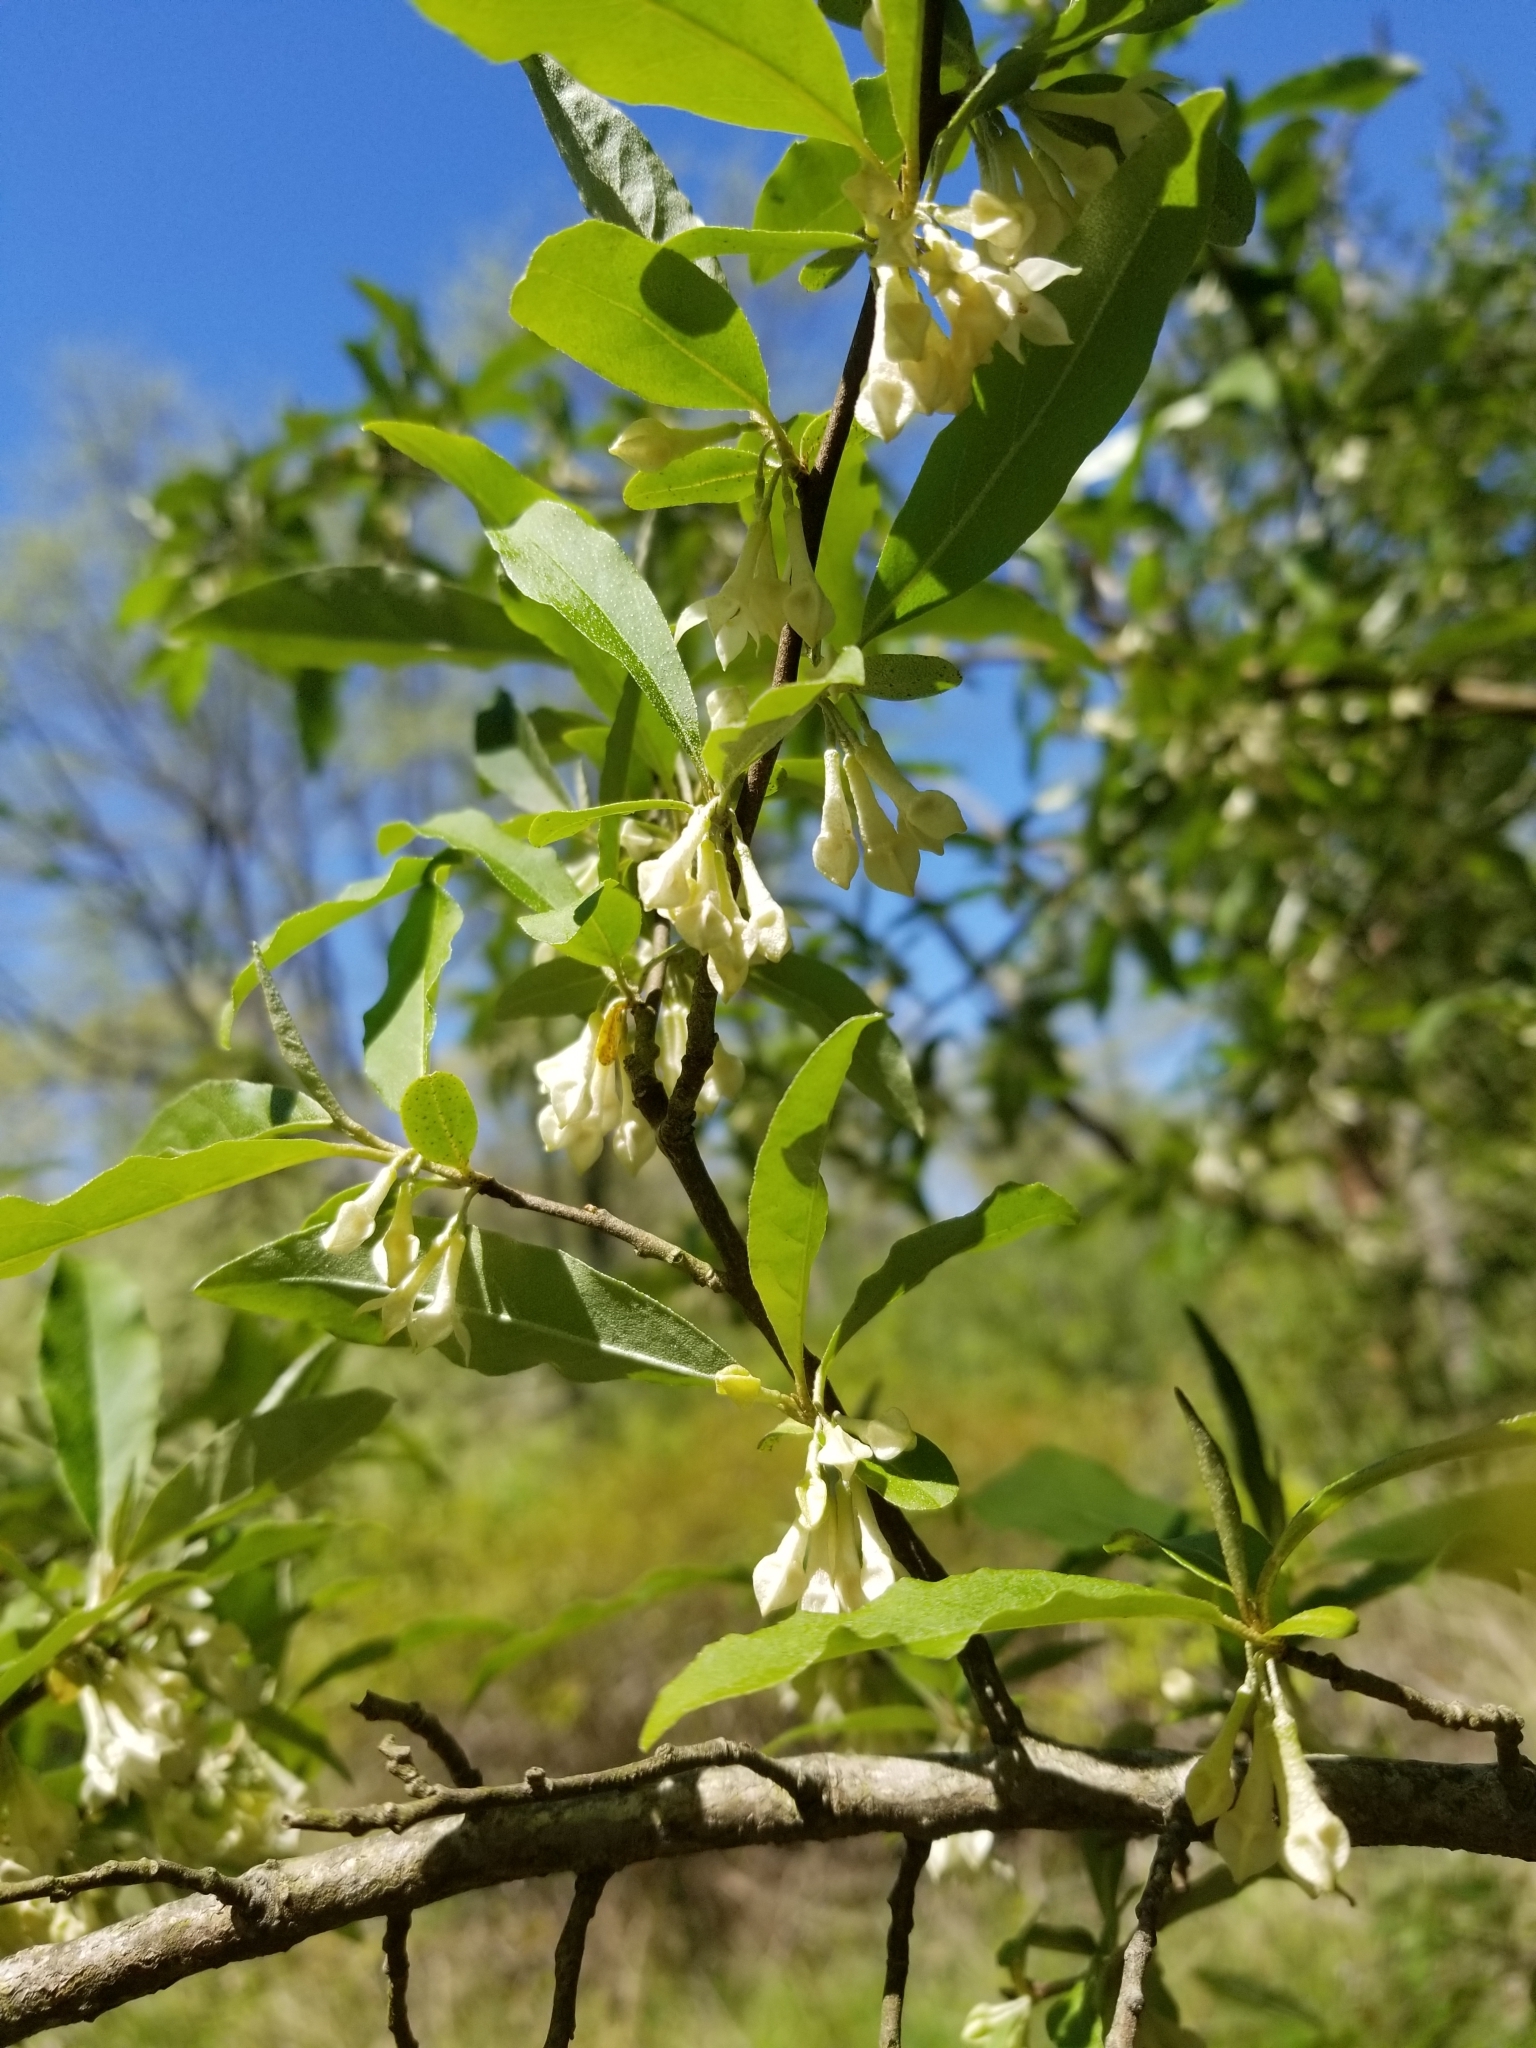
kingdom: Plantae
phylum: Tracheophyta
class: Magnoliopsida
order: Rosales
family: Elaeagnaceae
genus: Elaeagnus
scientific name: Elaeagnus umbellata
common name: Autumn olive
